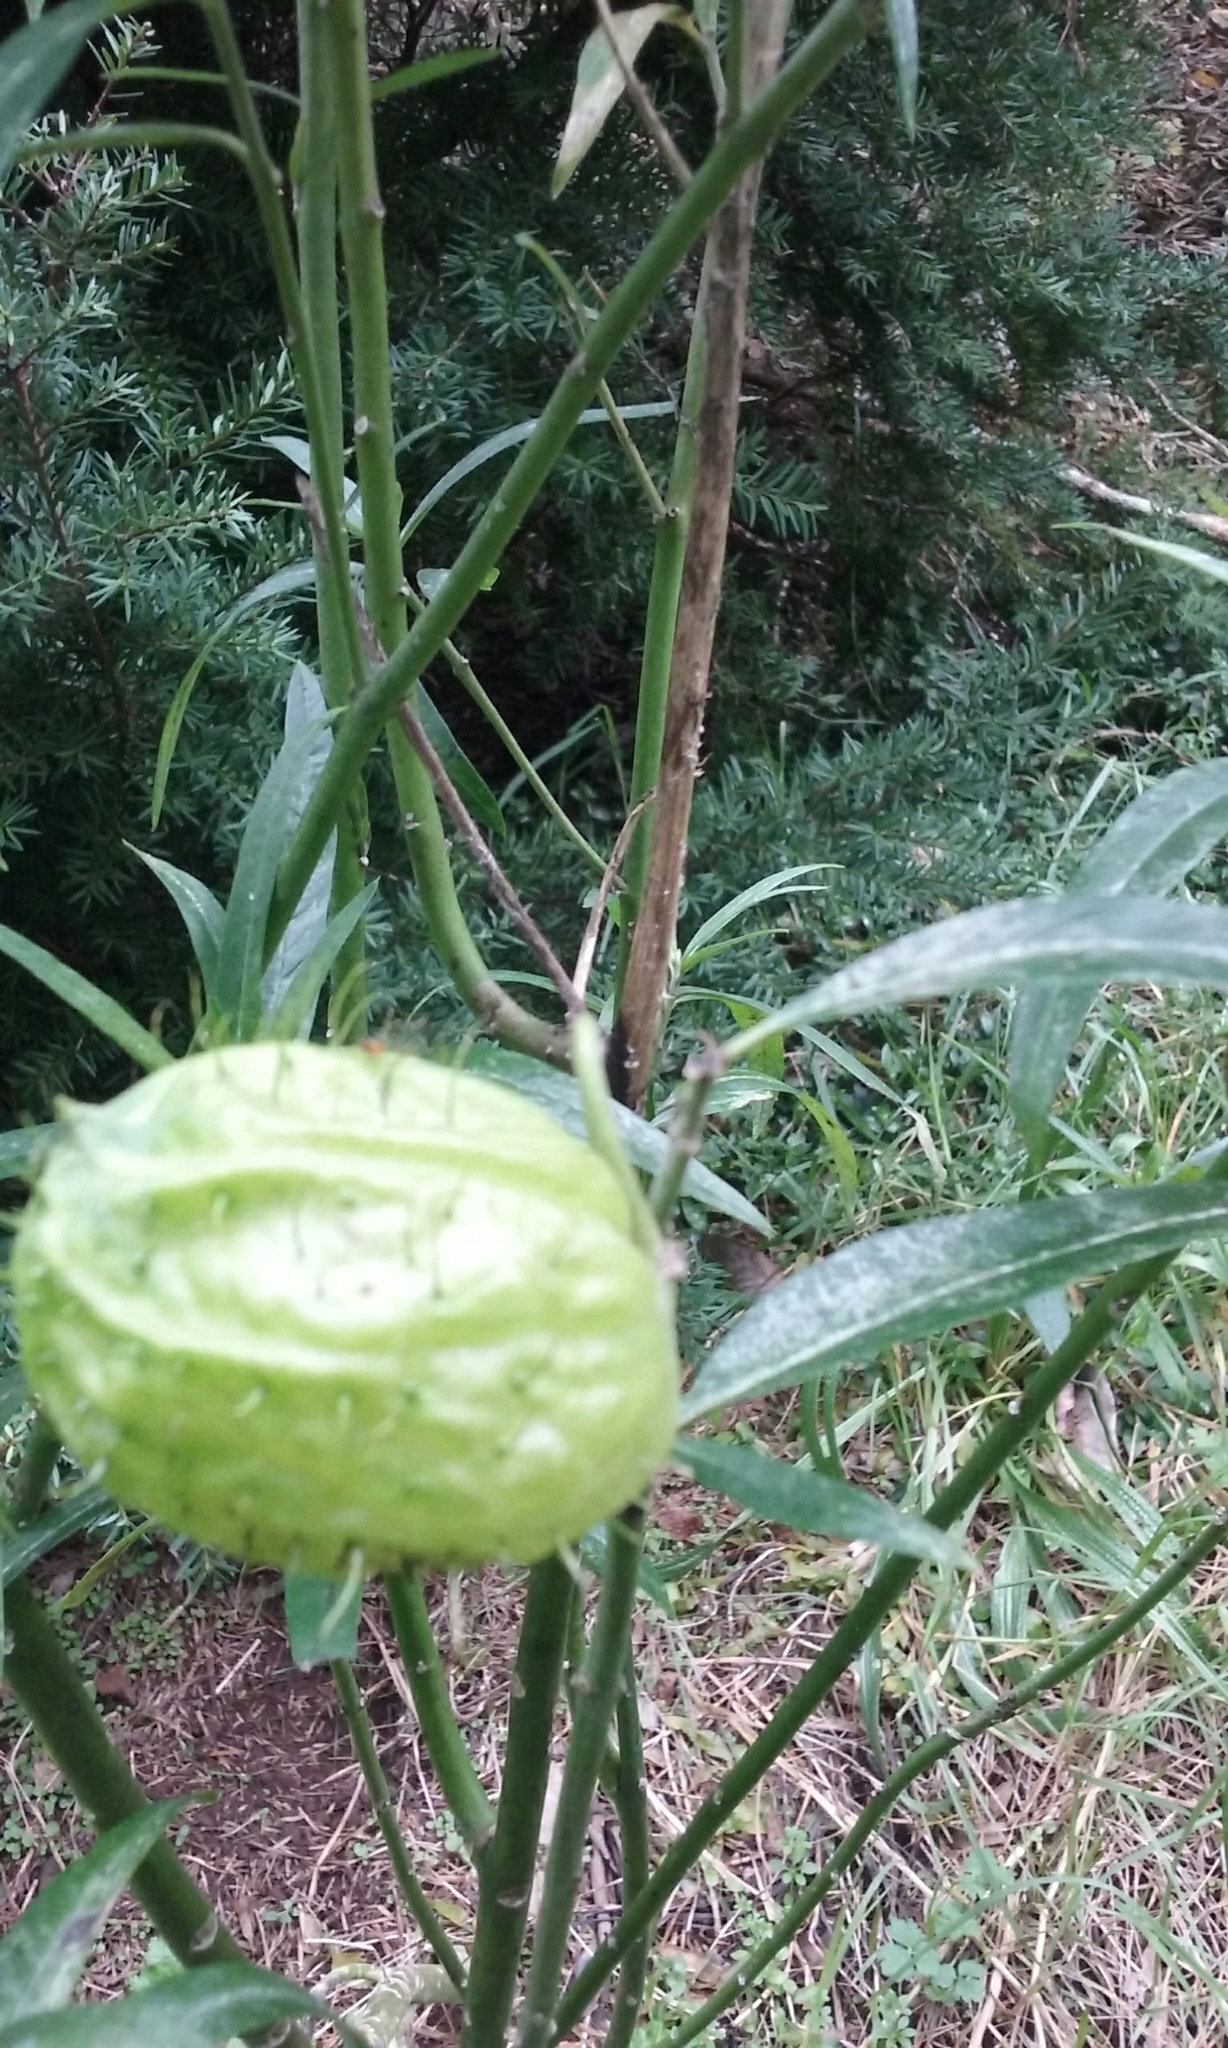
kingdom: Plantae
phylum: Tracheophyta
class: Magnoliopsida
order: Gentianales
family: Apocynaceae
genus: Gomphocarpus
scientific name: Gomphocarpus physocarpus
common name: Balloon cotton bush
